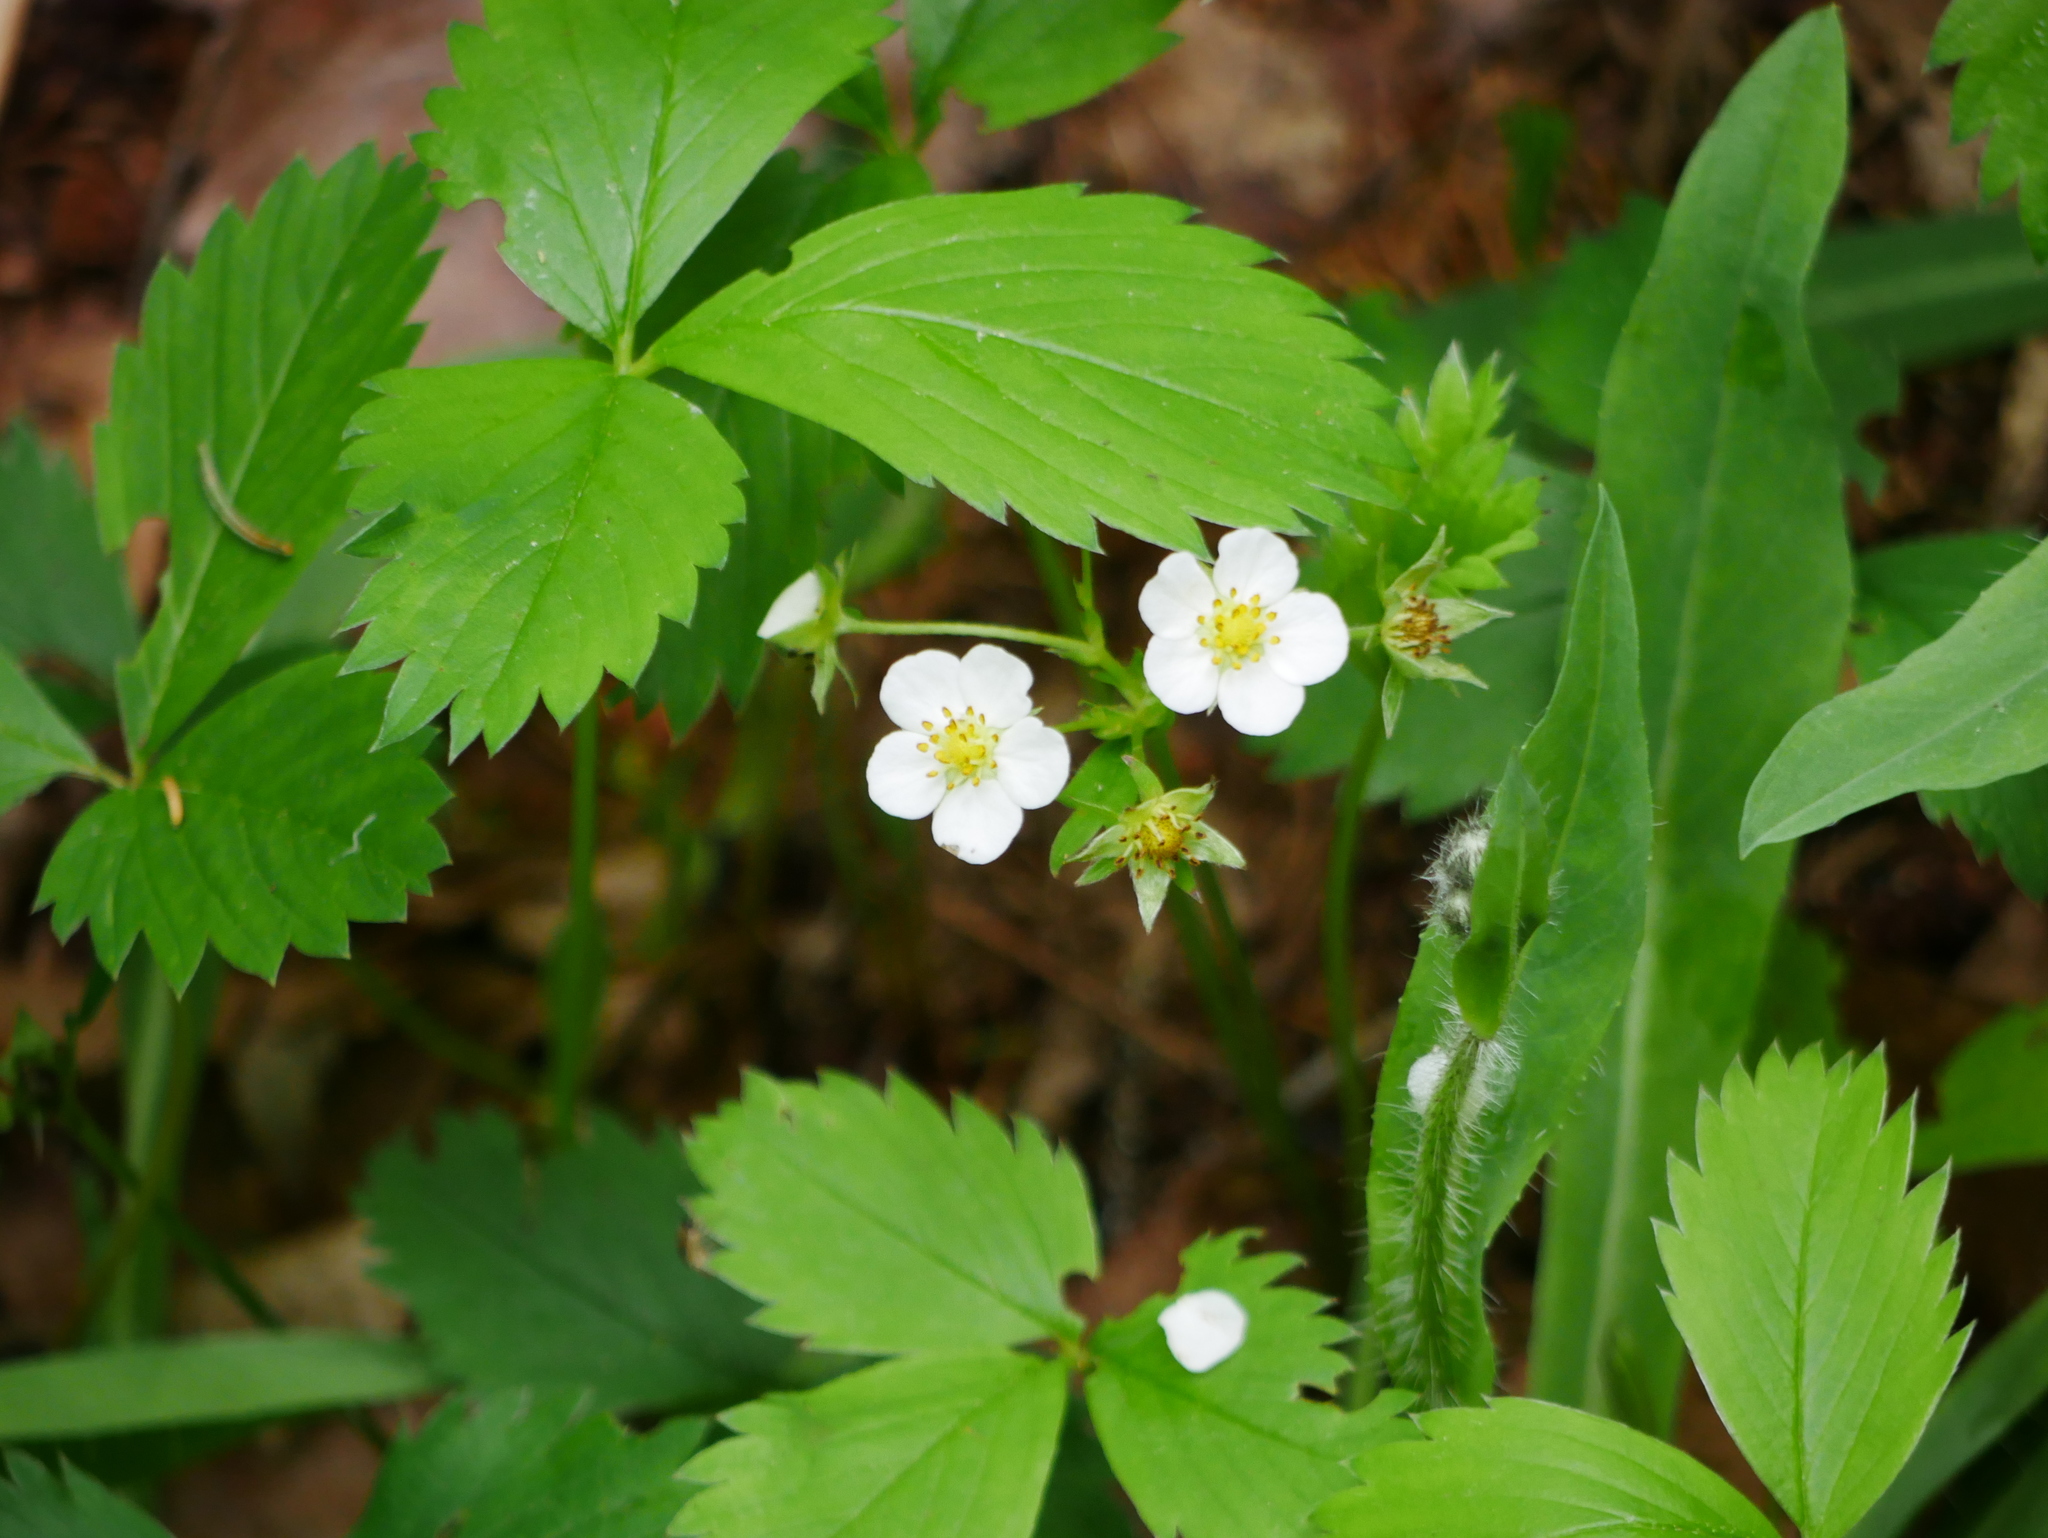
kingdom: Plantae
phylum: Tracheophyta
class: Magnoliopsida
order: Rosales
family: Rosaceae
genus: Fragaria
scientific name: Fragaria virginiana
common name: Thickleaved wild strawberry
